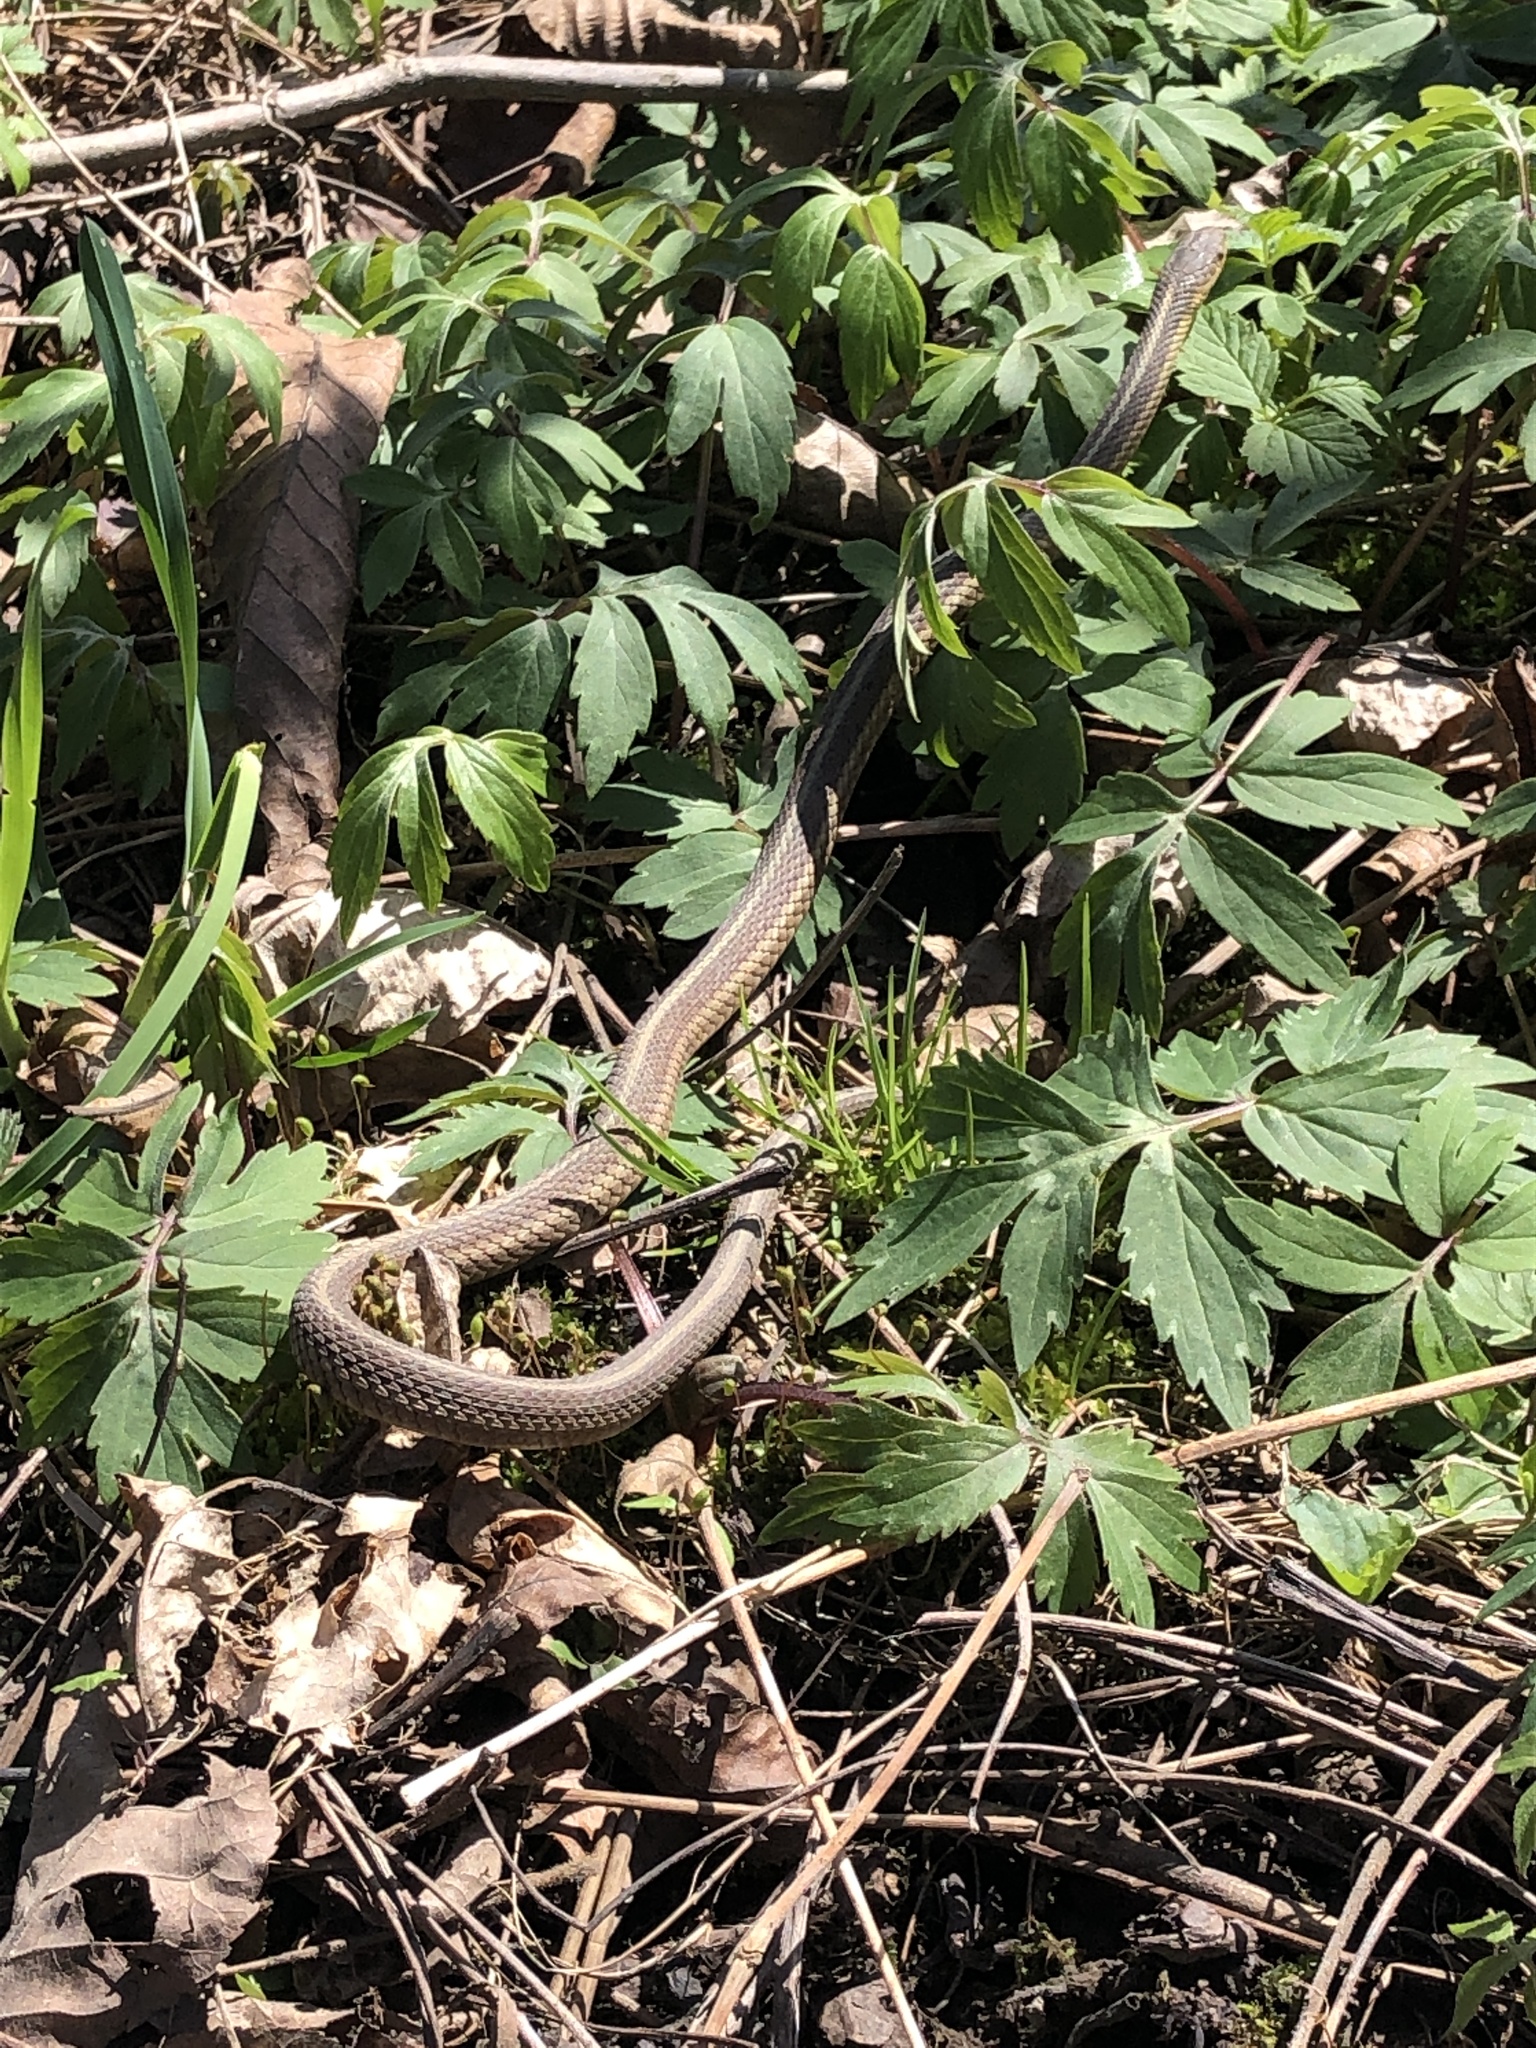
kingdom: Animalia
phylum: Chordata
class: Squamata
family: Colubridae
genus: Thamnophis
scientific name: Thamnophis sirtalis
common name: Common garter snake
